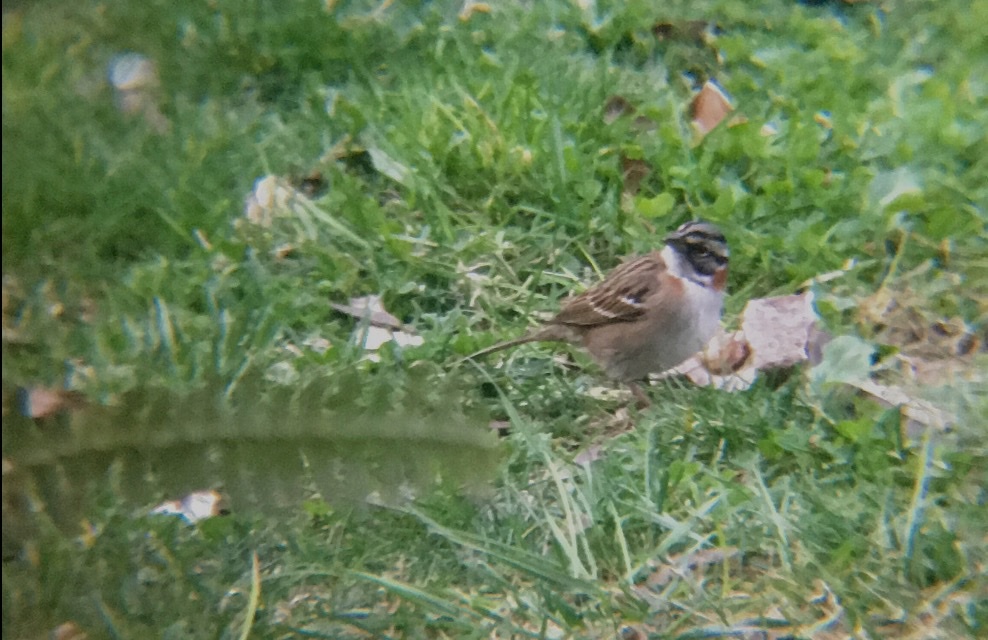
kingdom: Animalia
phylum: Chordata
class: Aves
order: Passeriformes
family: Passerellidae
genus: Zonotrichia
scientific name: Zonotrichia capensis
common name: Rufous-collared sparrow
